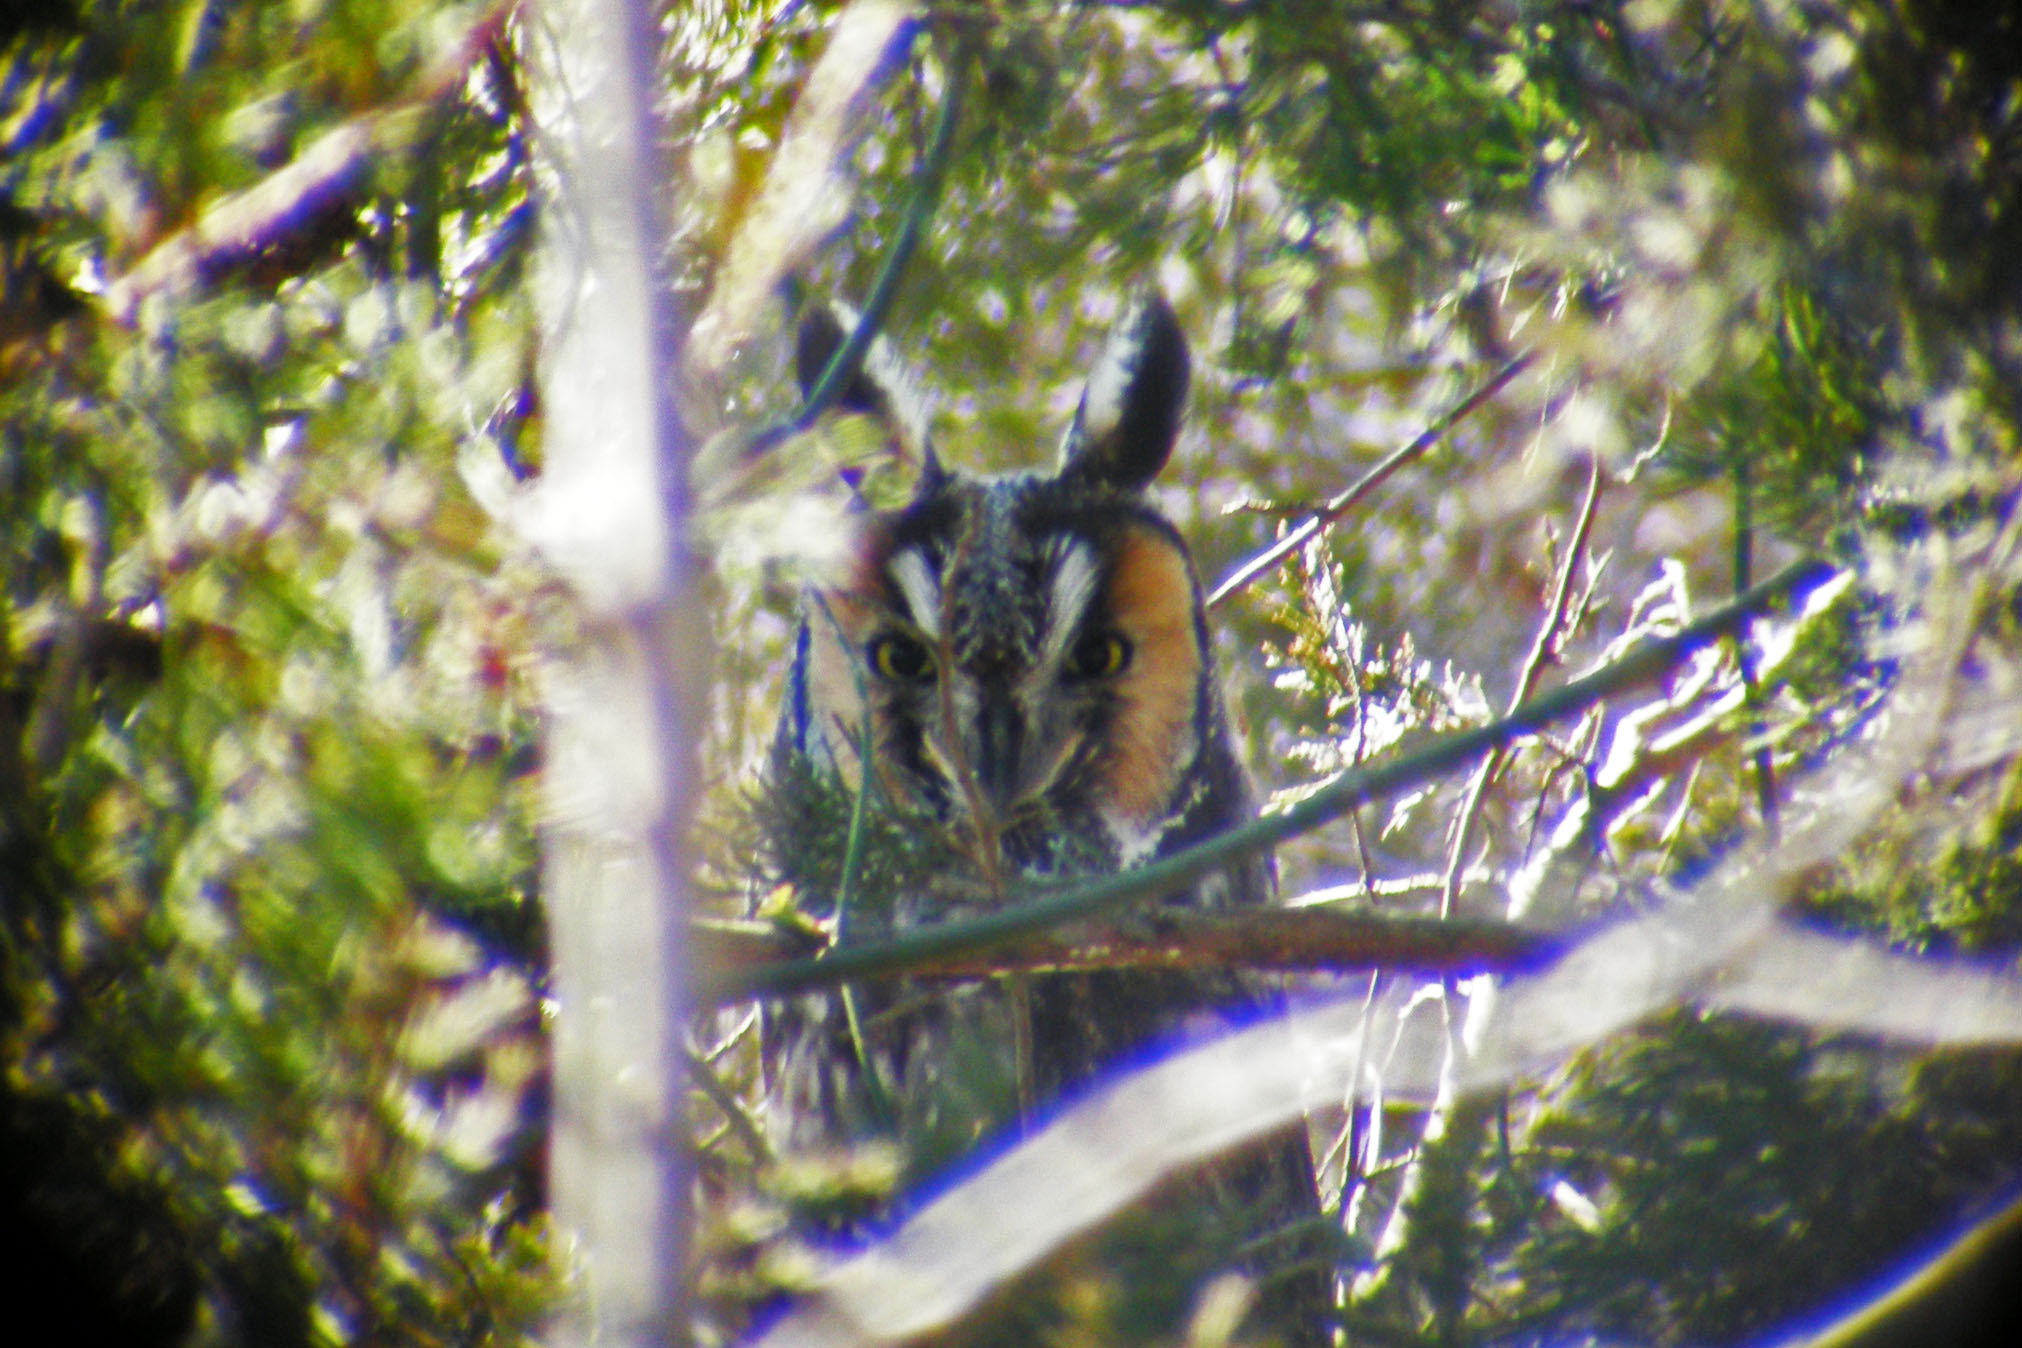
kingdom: Animalia
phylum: Chordata
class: Aves
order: Strigiformes
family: Strigidae
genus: Asio
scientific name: Asio otus
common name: Long-eared owl
